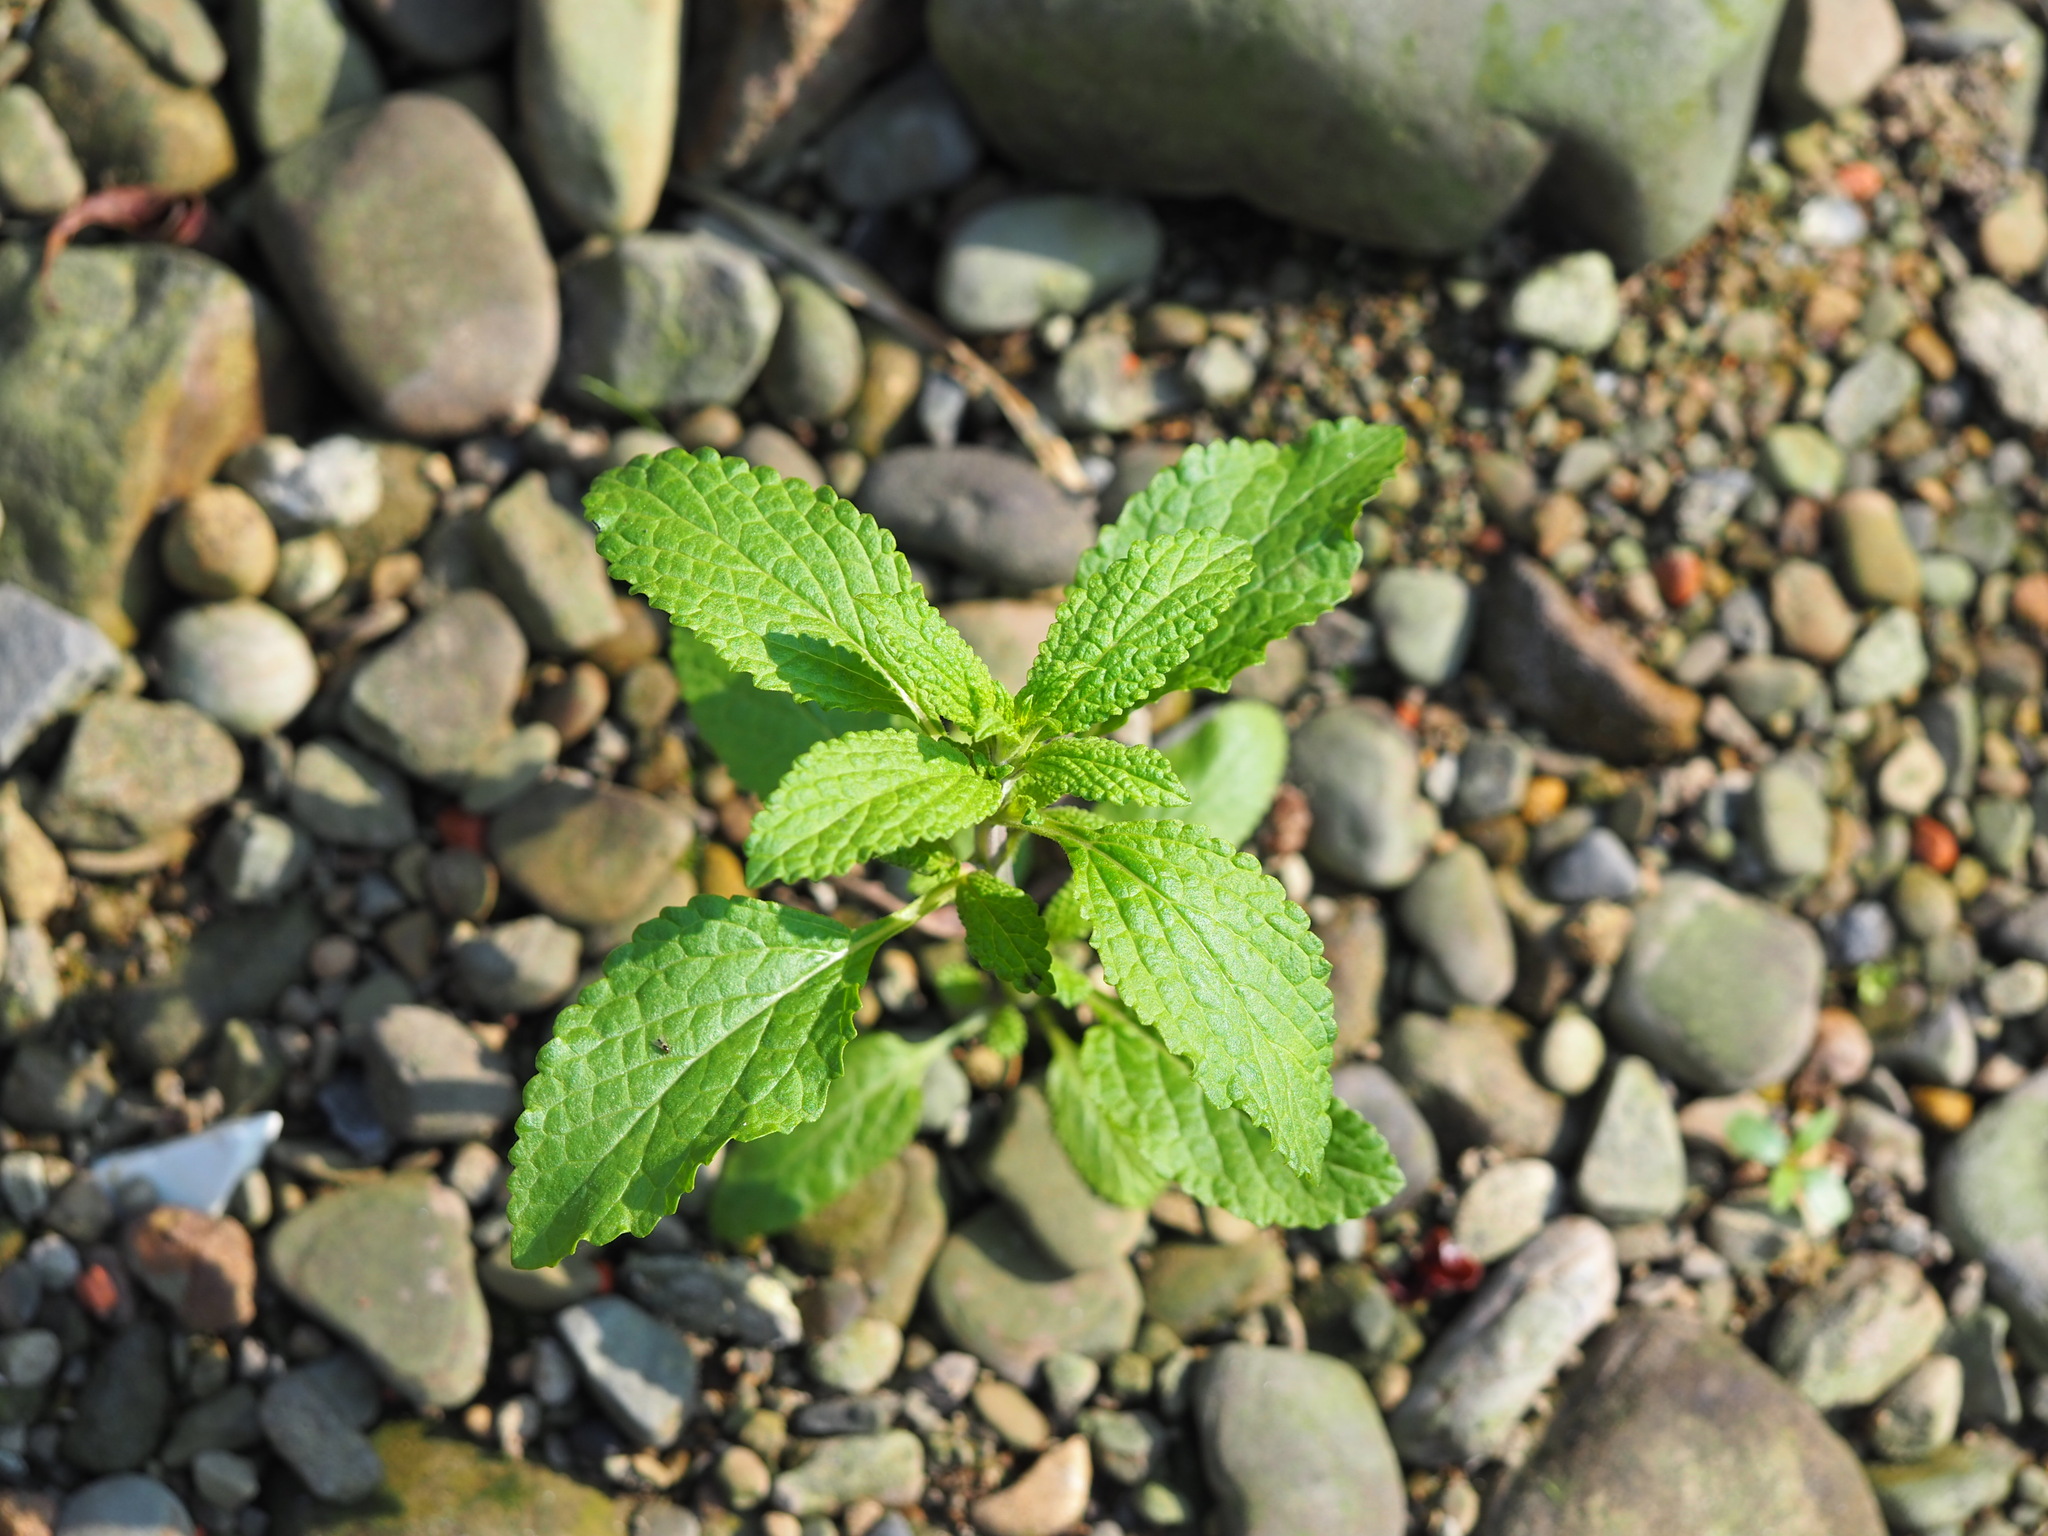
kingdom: Plantae
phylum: Tracheophyta
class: Magnoliopsida
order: Lamiales
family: Lamiaceae
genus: Salvia
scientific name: Salvia plebeia
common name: Australian sage
